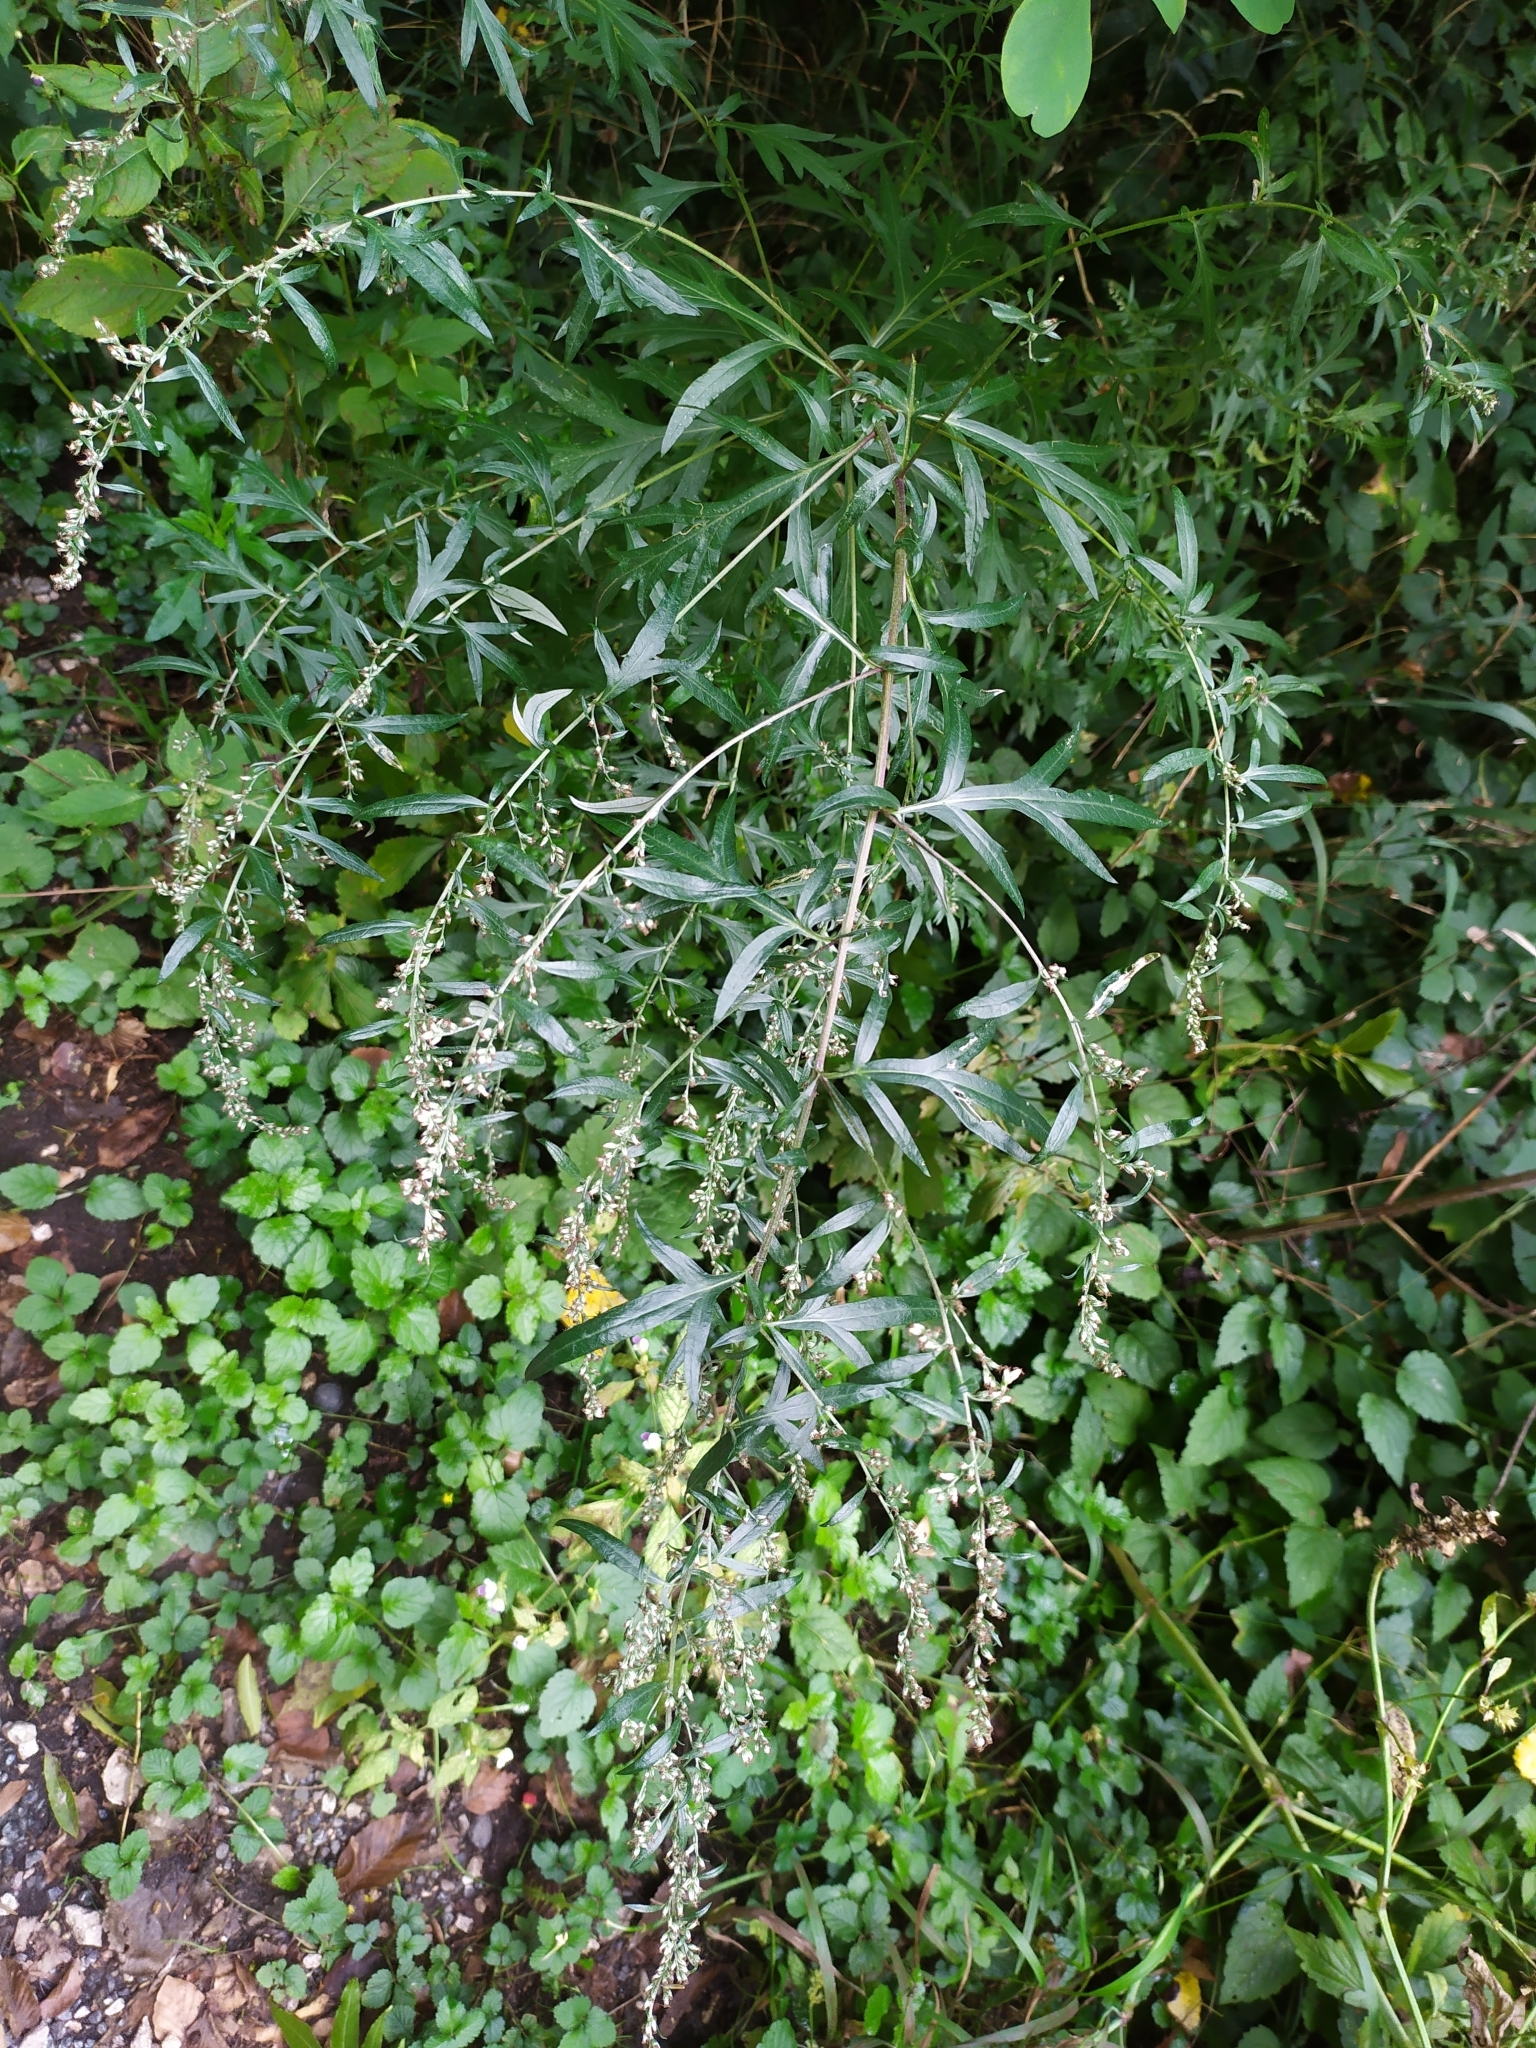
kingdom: Plantae
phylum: Tracheophyta
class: Magnoliopsida
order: Asterales
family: Asteraceae
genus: Artemisia
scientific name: Artemisia vulgaris
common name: Mugwort
